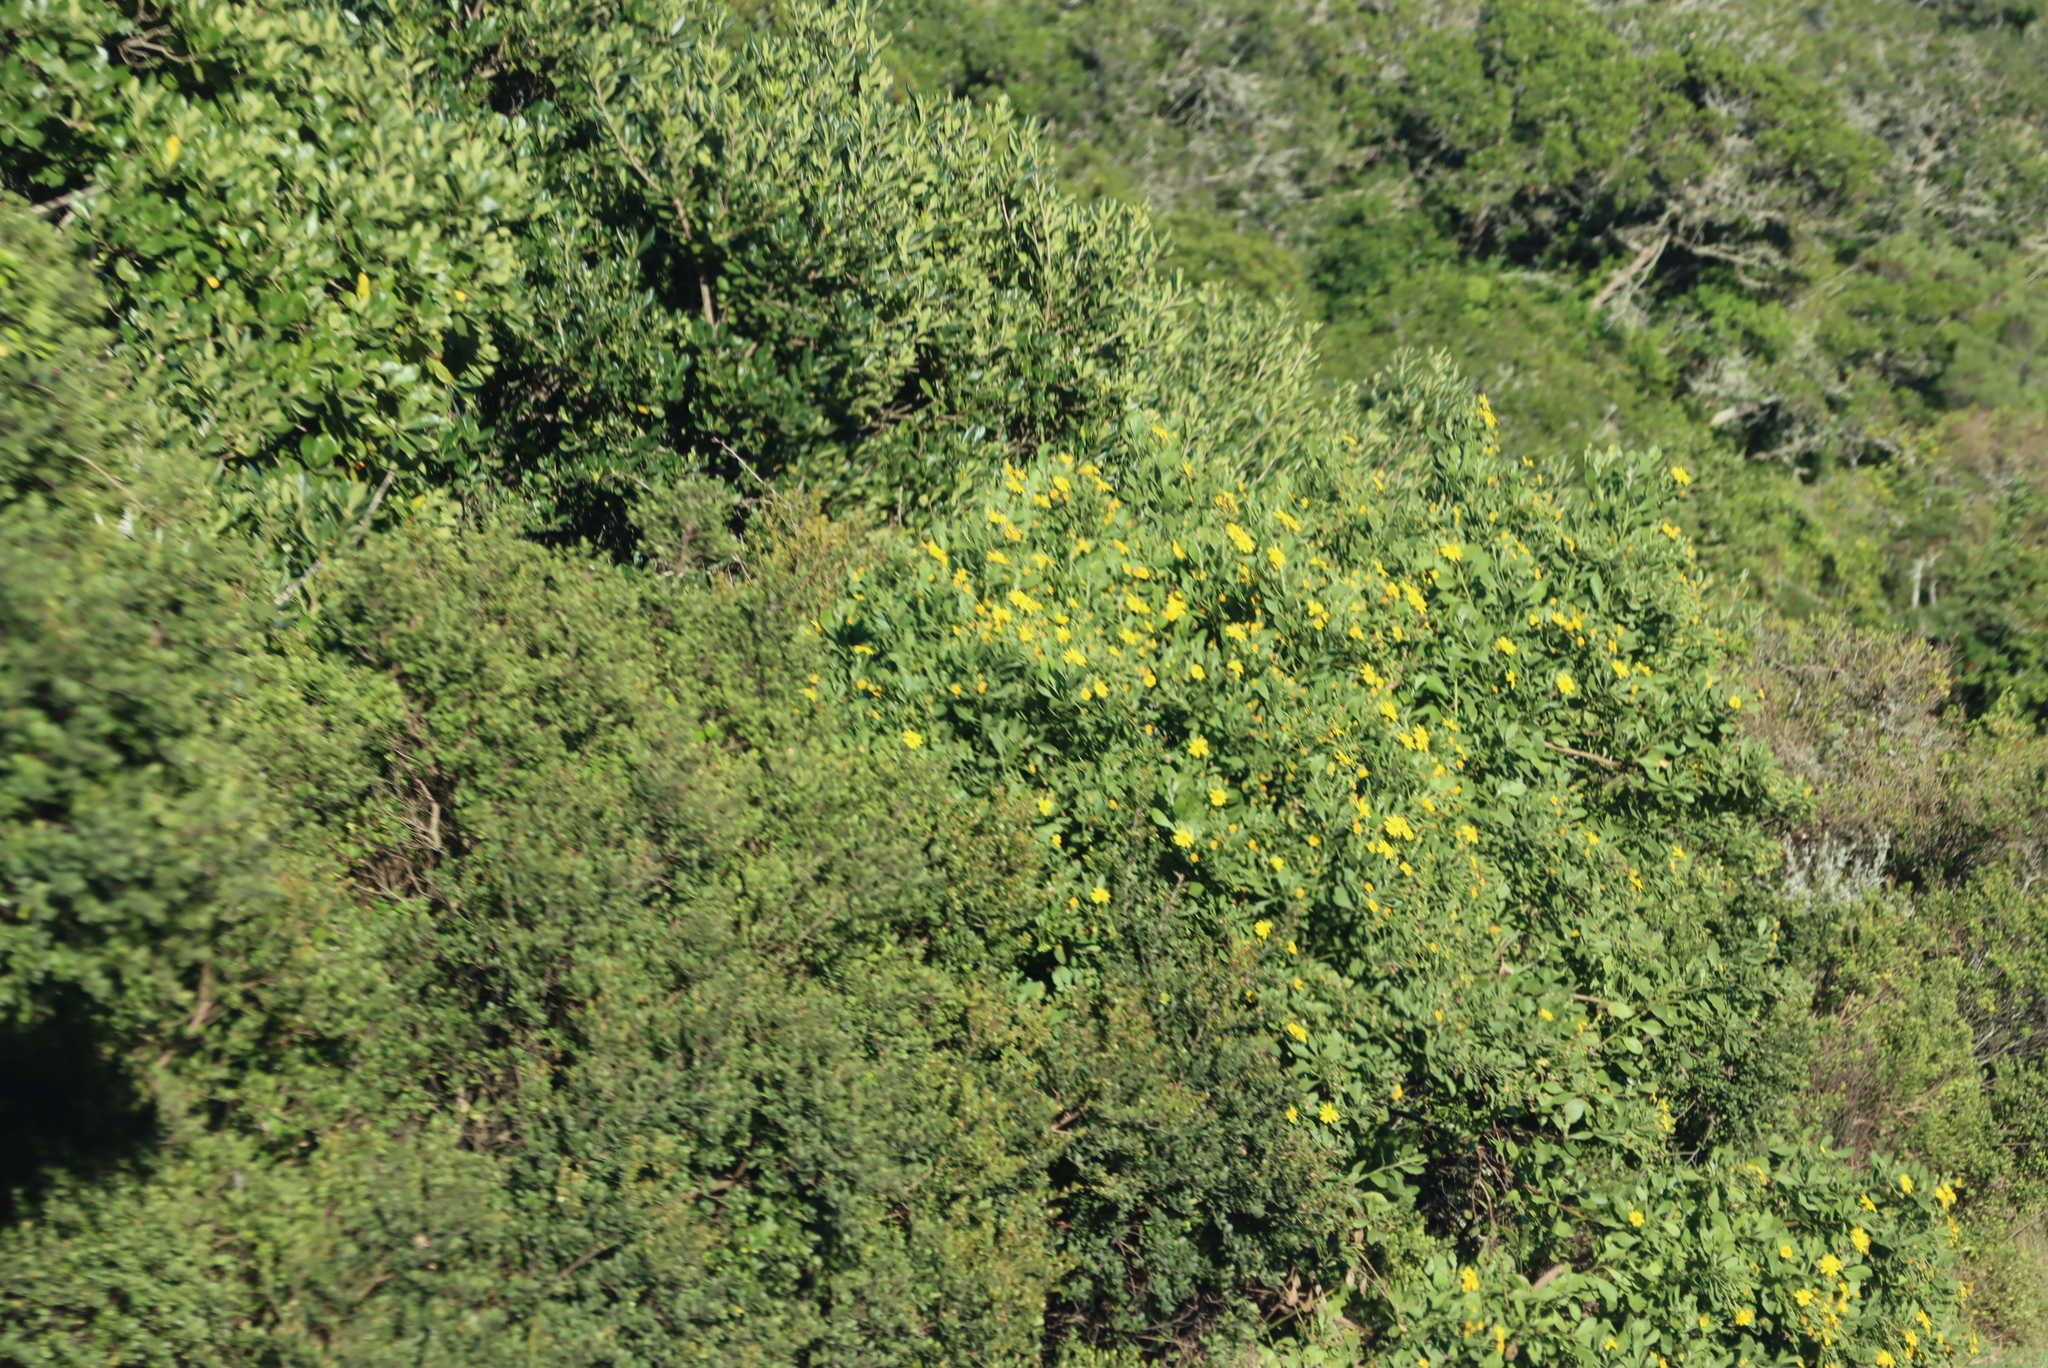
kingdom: Plantae
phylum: Tracheophyta
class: Magnoliopsida
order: Asterales
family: Asteraceae
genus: Osteospermum
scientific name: Osteospermum moniliferum
